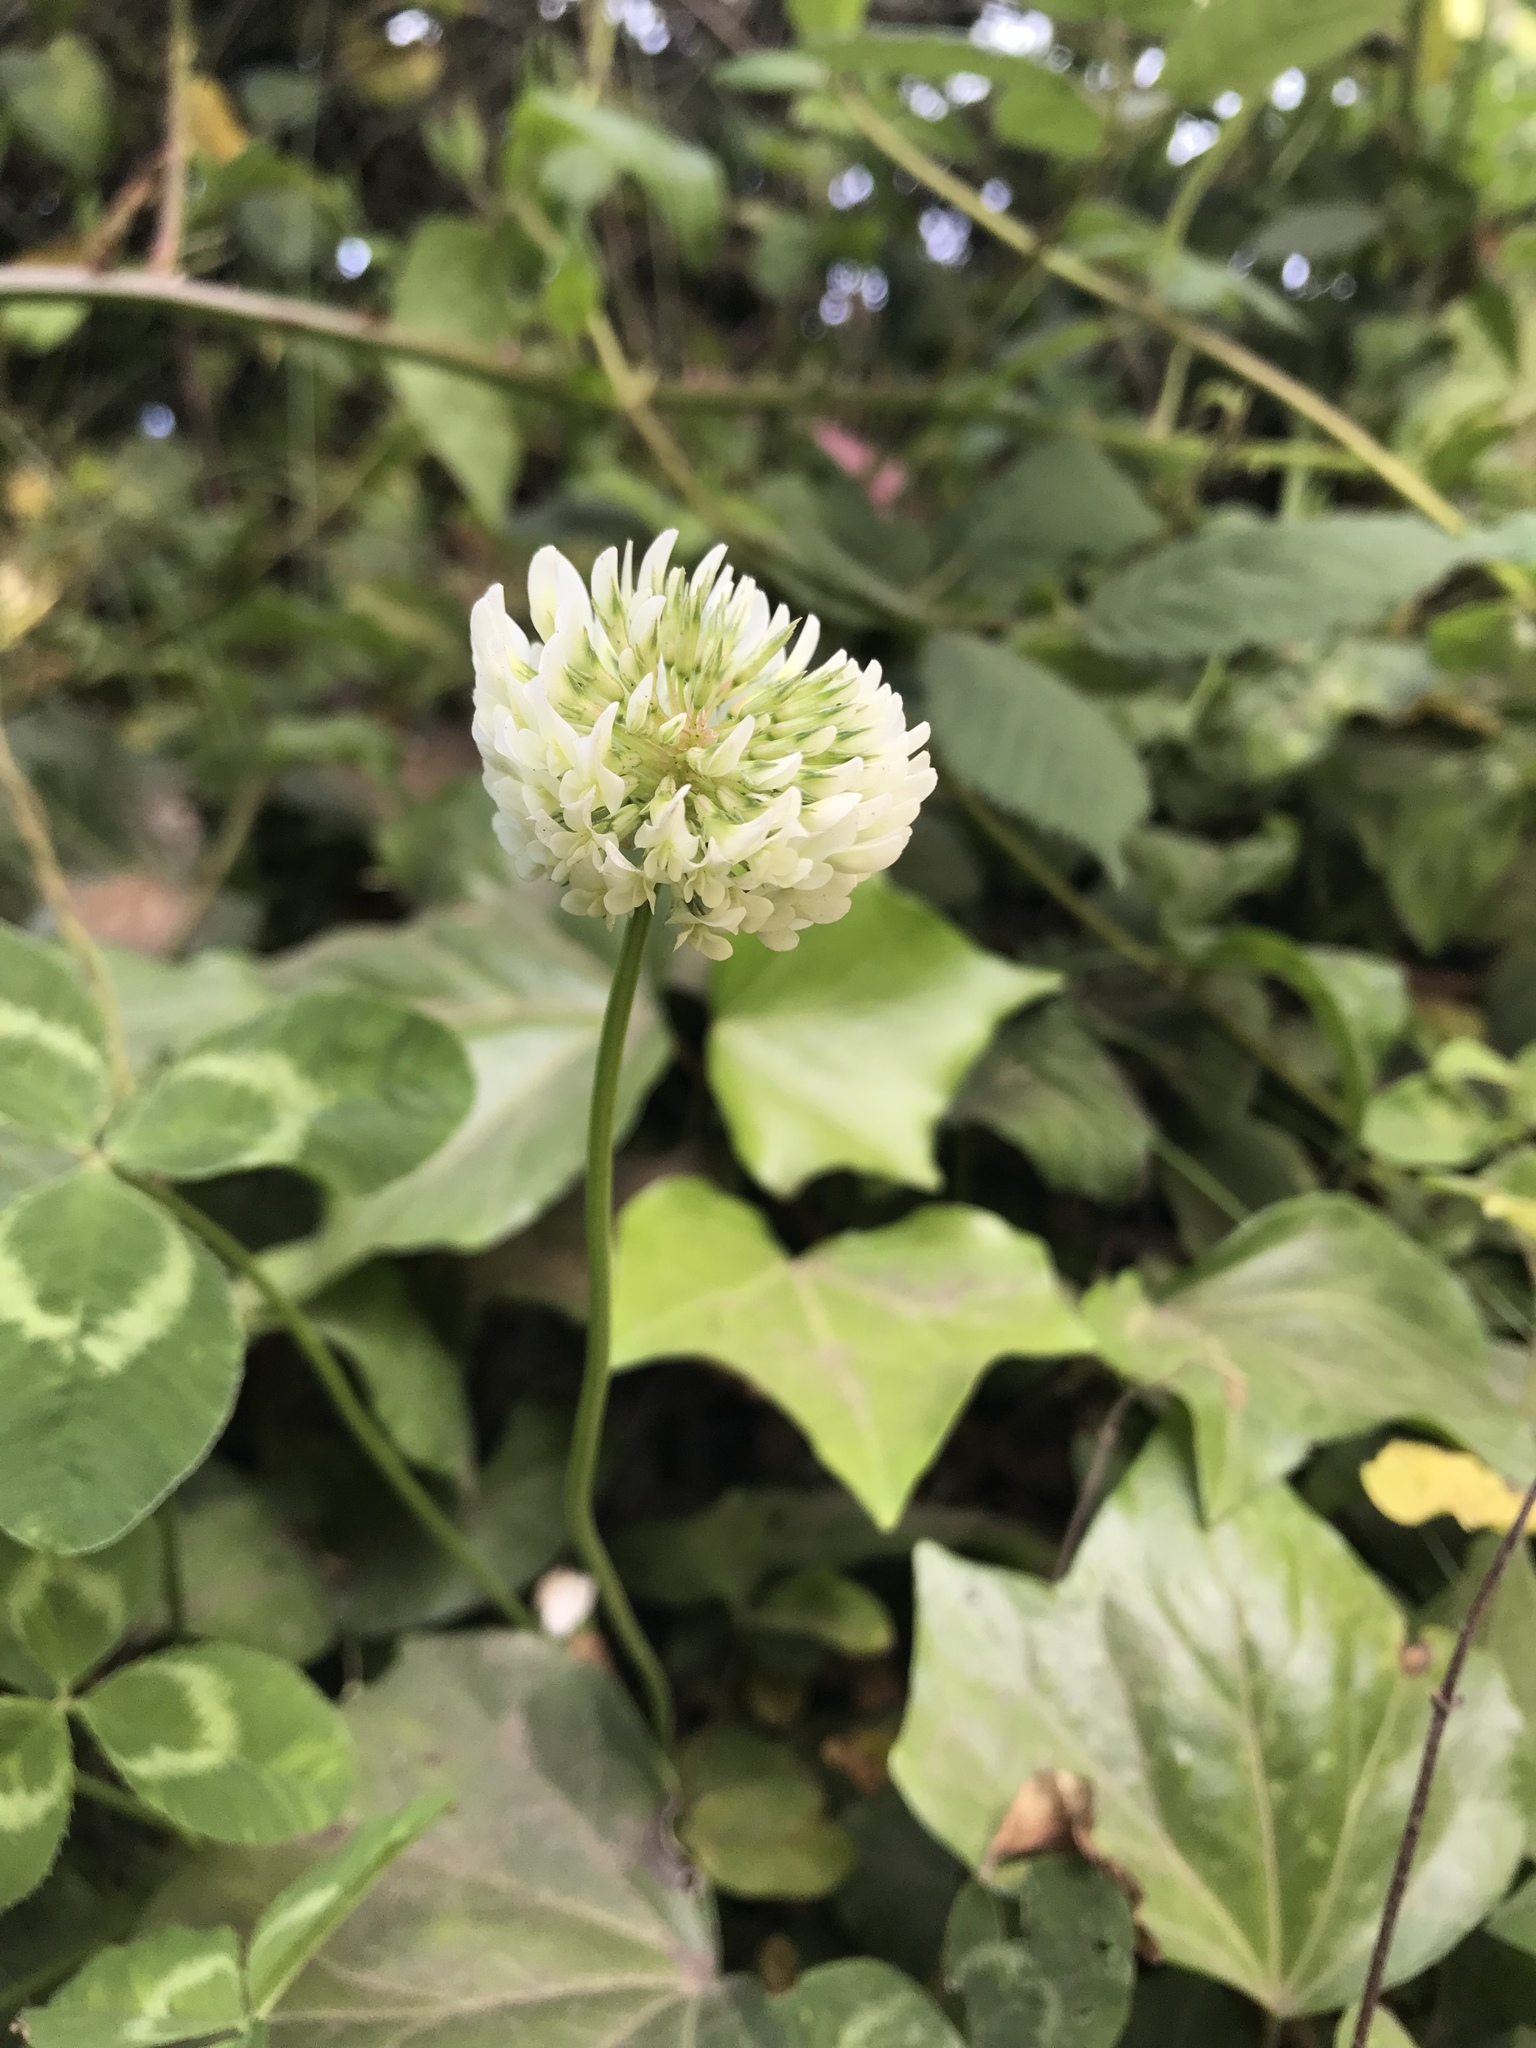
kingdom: Plantae
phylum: Tracheophyta
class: Magnoliopsida
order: Fabales
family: Fabaceae
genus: Trifolium
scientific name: Trifolium repens
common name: White clover
